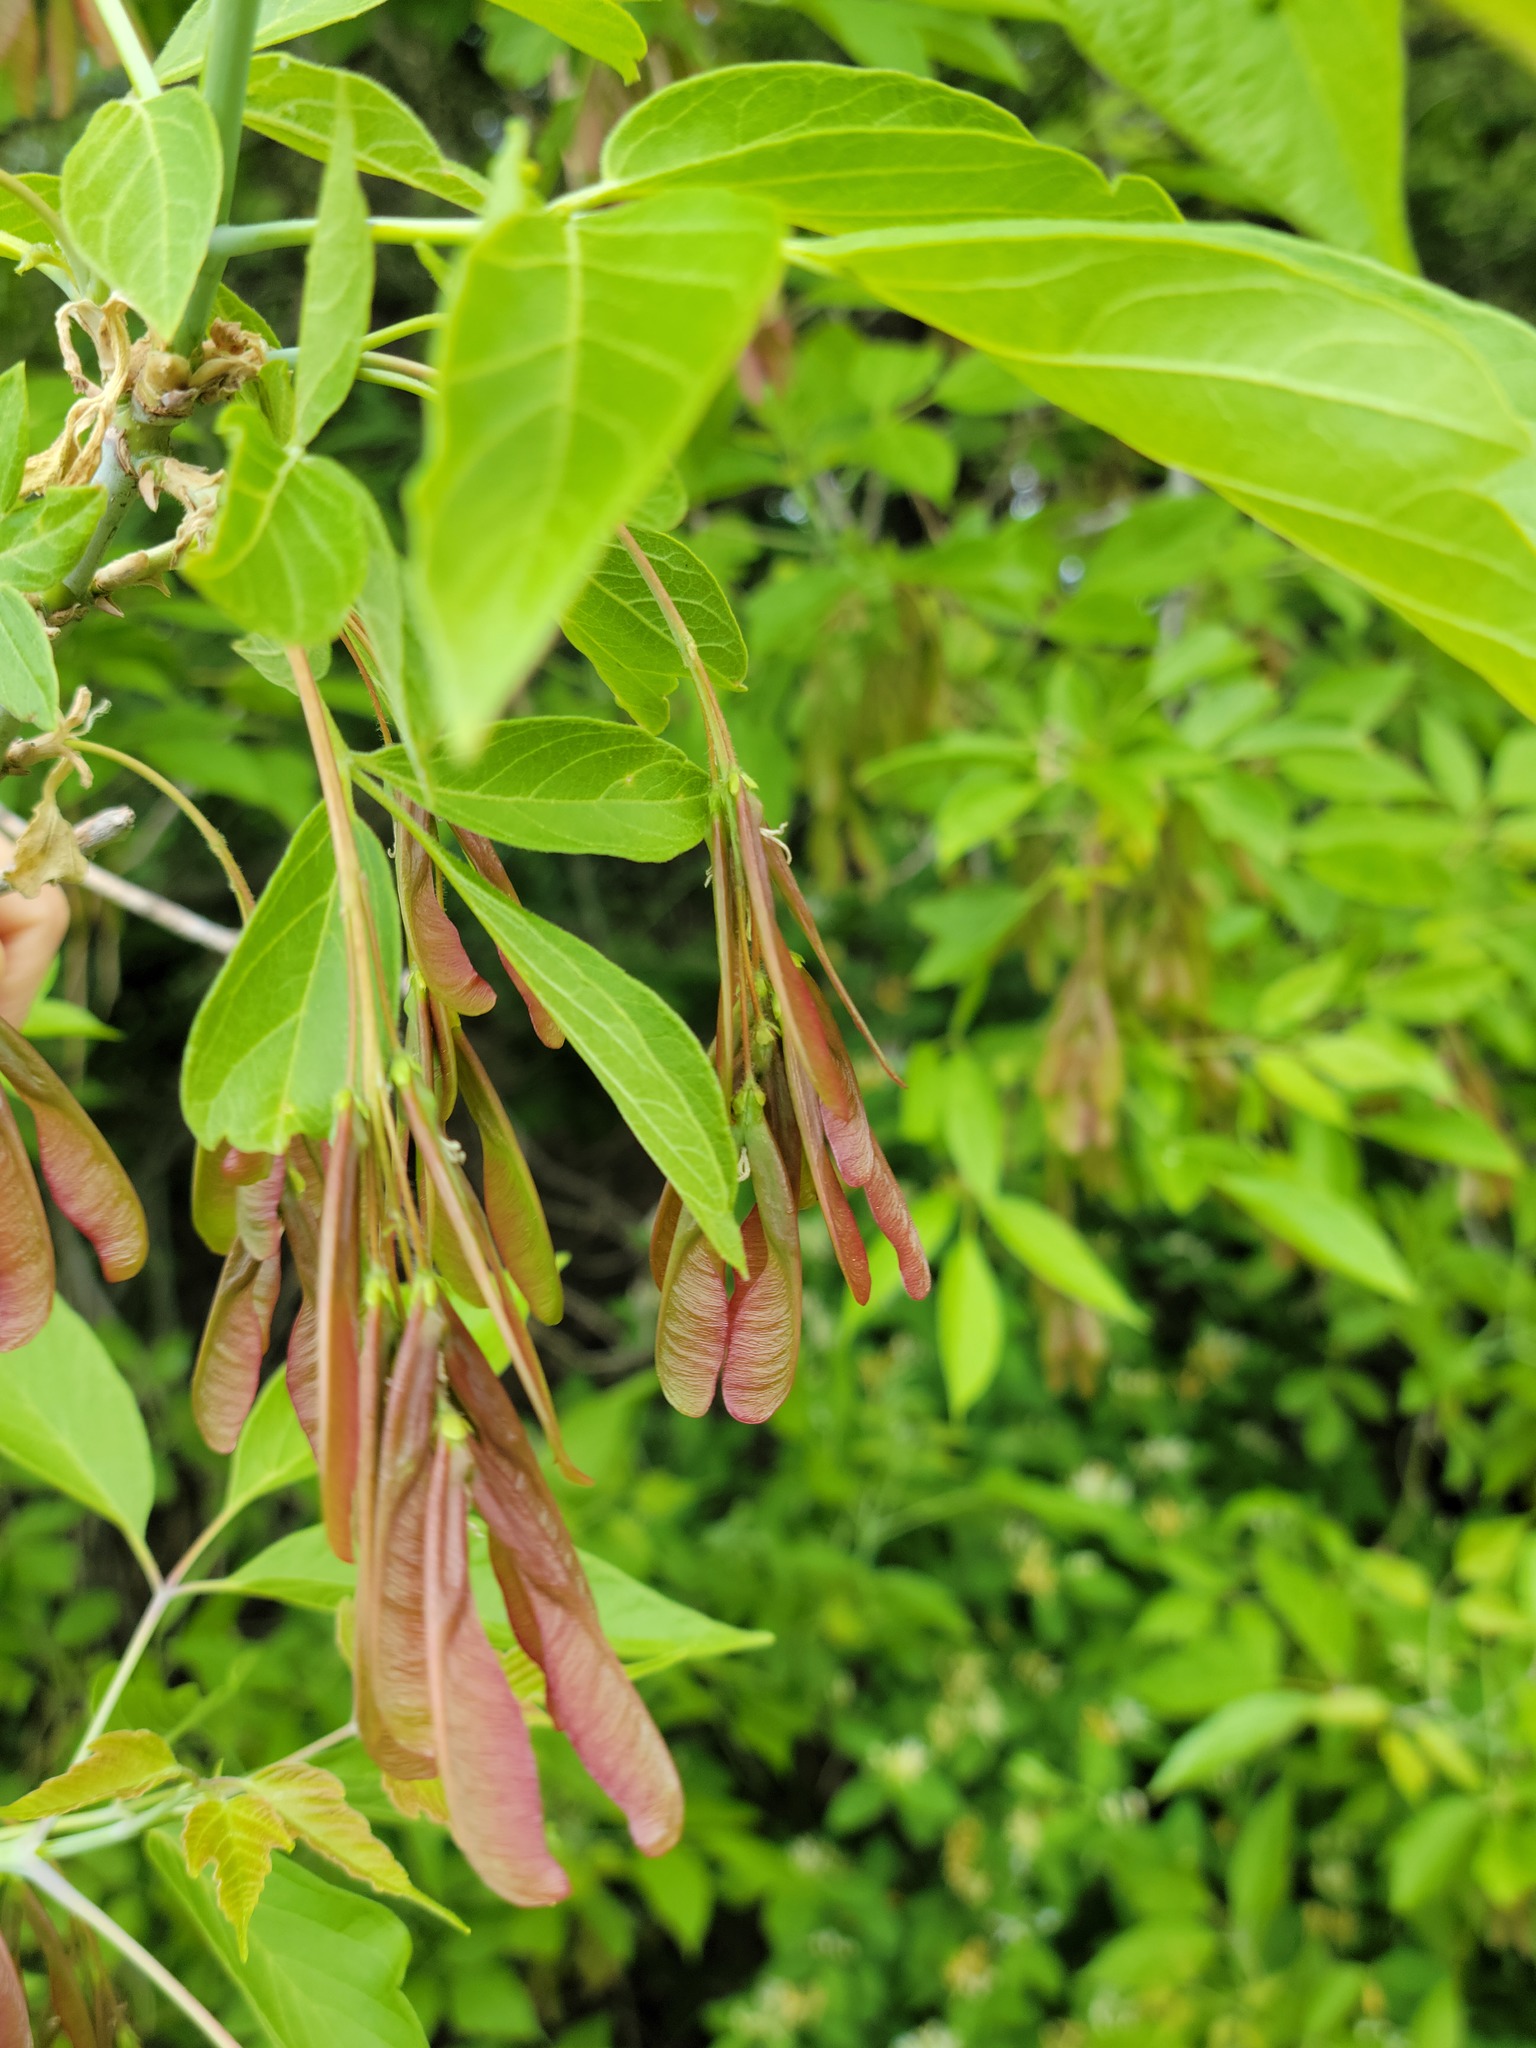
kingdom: Plantae
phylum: Tracheophyta
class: Magnoliopsida
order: Sapindales
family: Sapindaceae
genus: Acer
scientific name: Acer negundo
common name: Ashleaf maple
